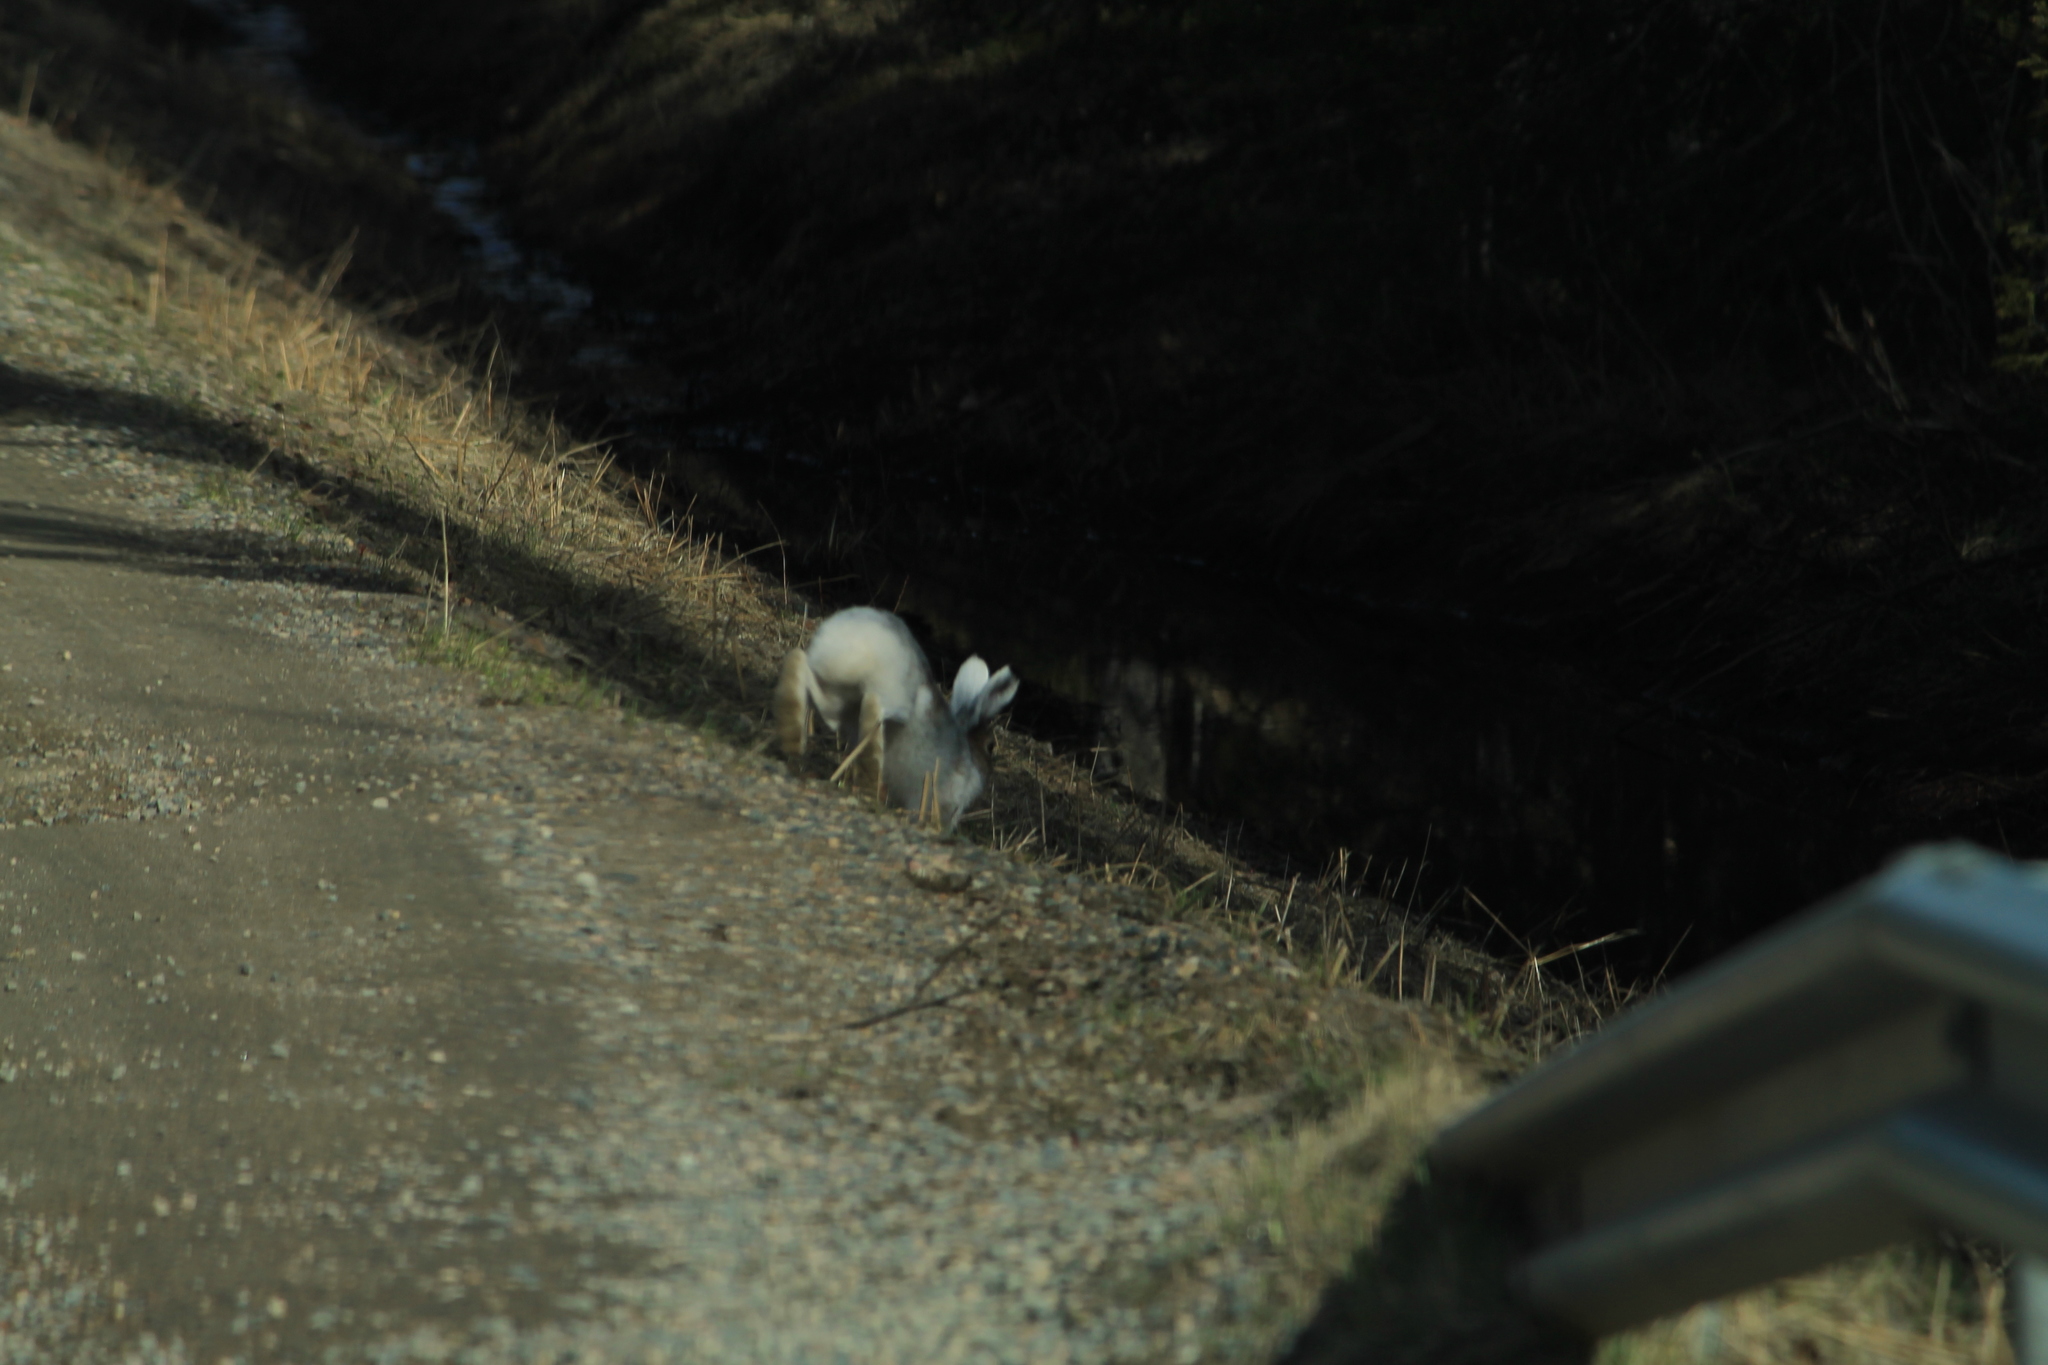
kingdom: Animalia
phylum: Chordata
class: Mammalia
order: Lagomorpha
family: Leporidae
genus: Lepus
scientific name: Lepus timidus
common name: Mountain hare
